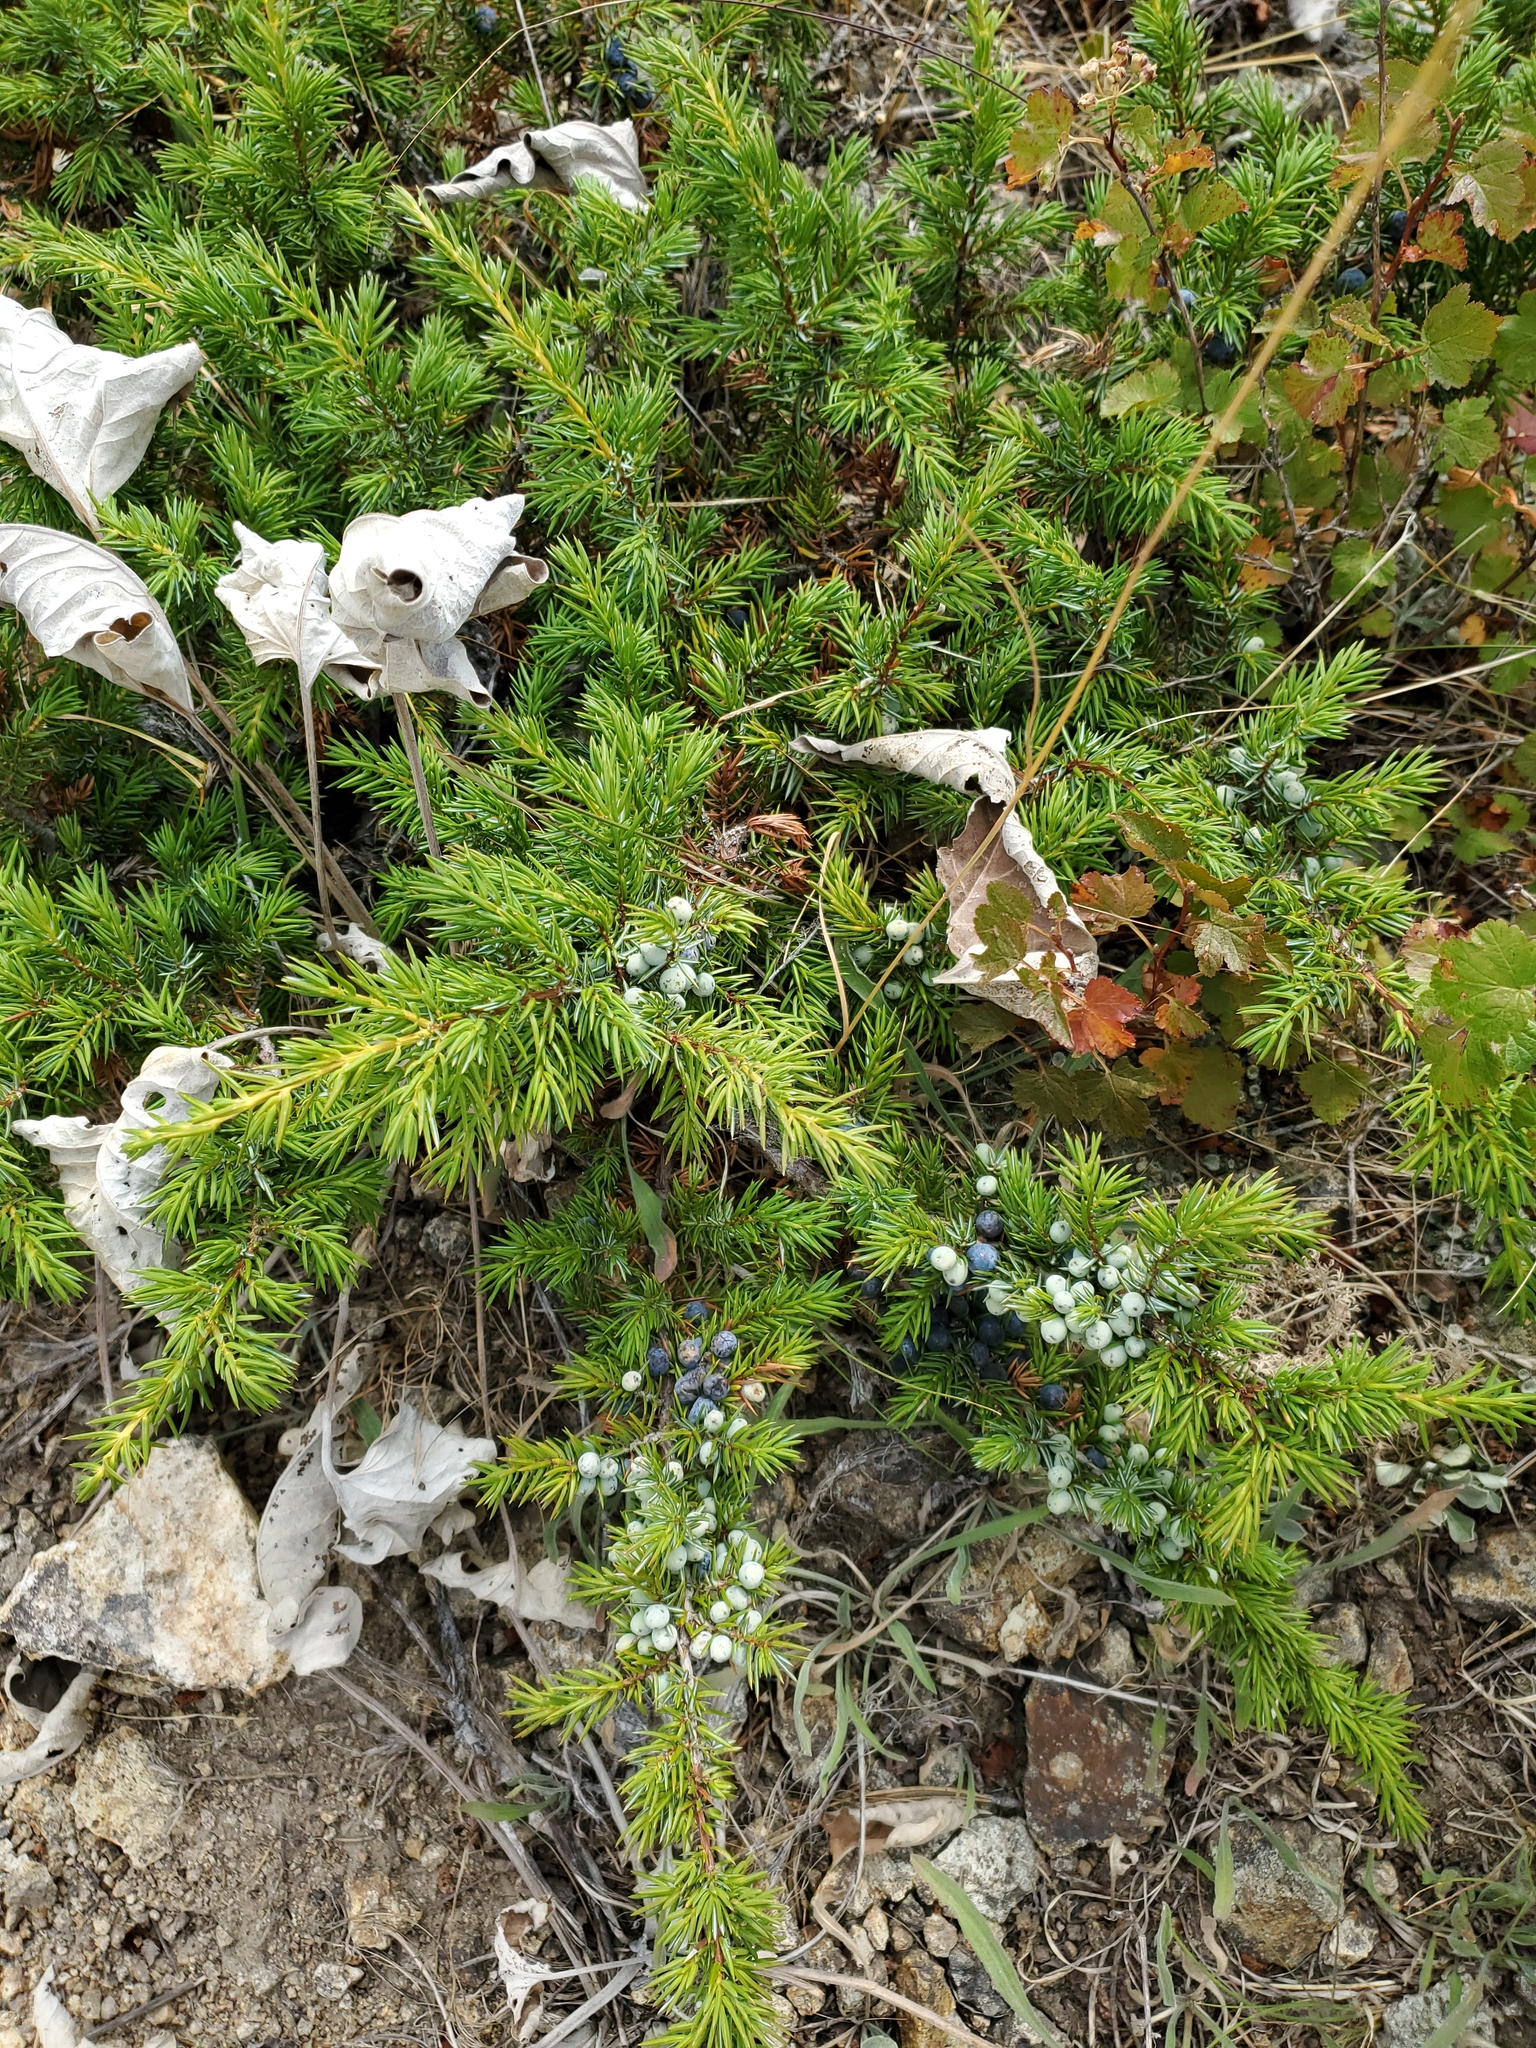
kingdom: Plantae
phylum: Tracheophyta
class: Pinopsida
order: Pinales
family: Cupressaceae
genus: Juniperus
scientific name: Juniperus communis
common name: Common juniper
